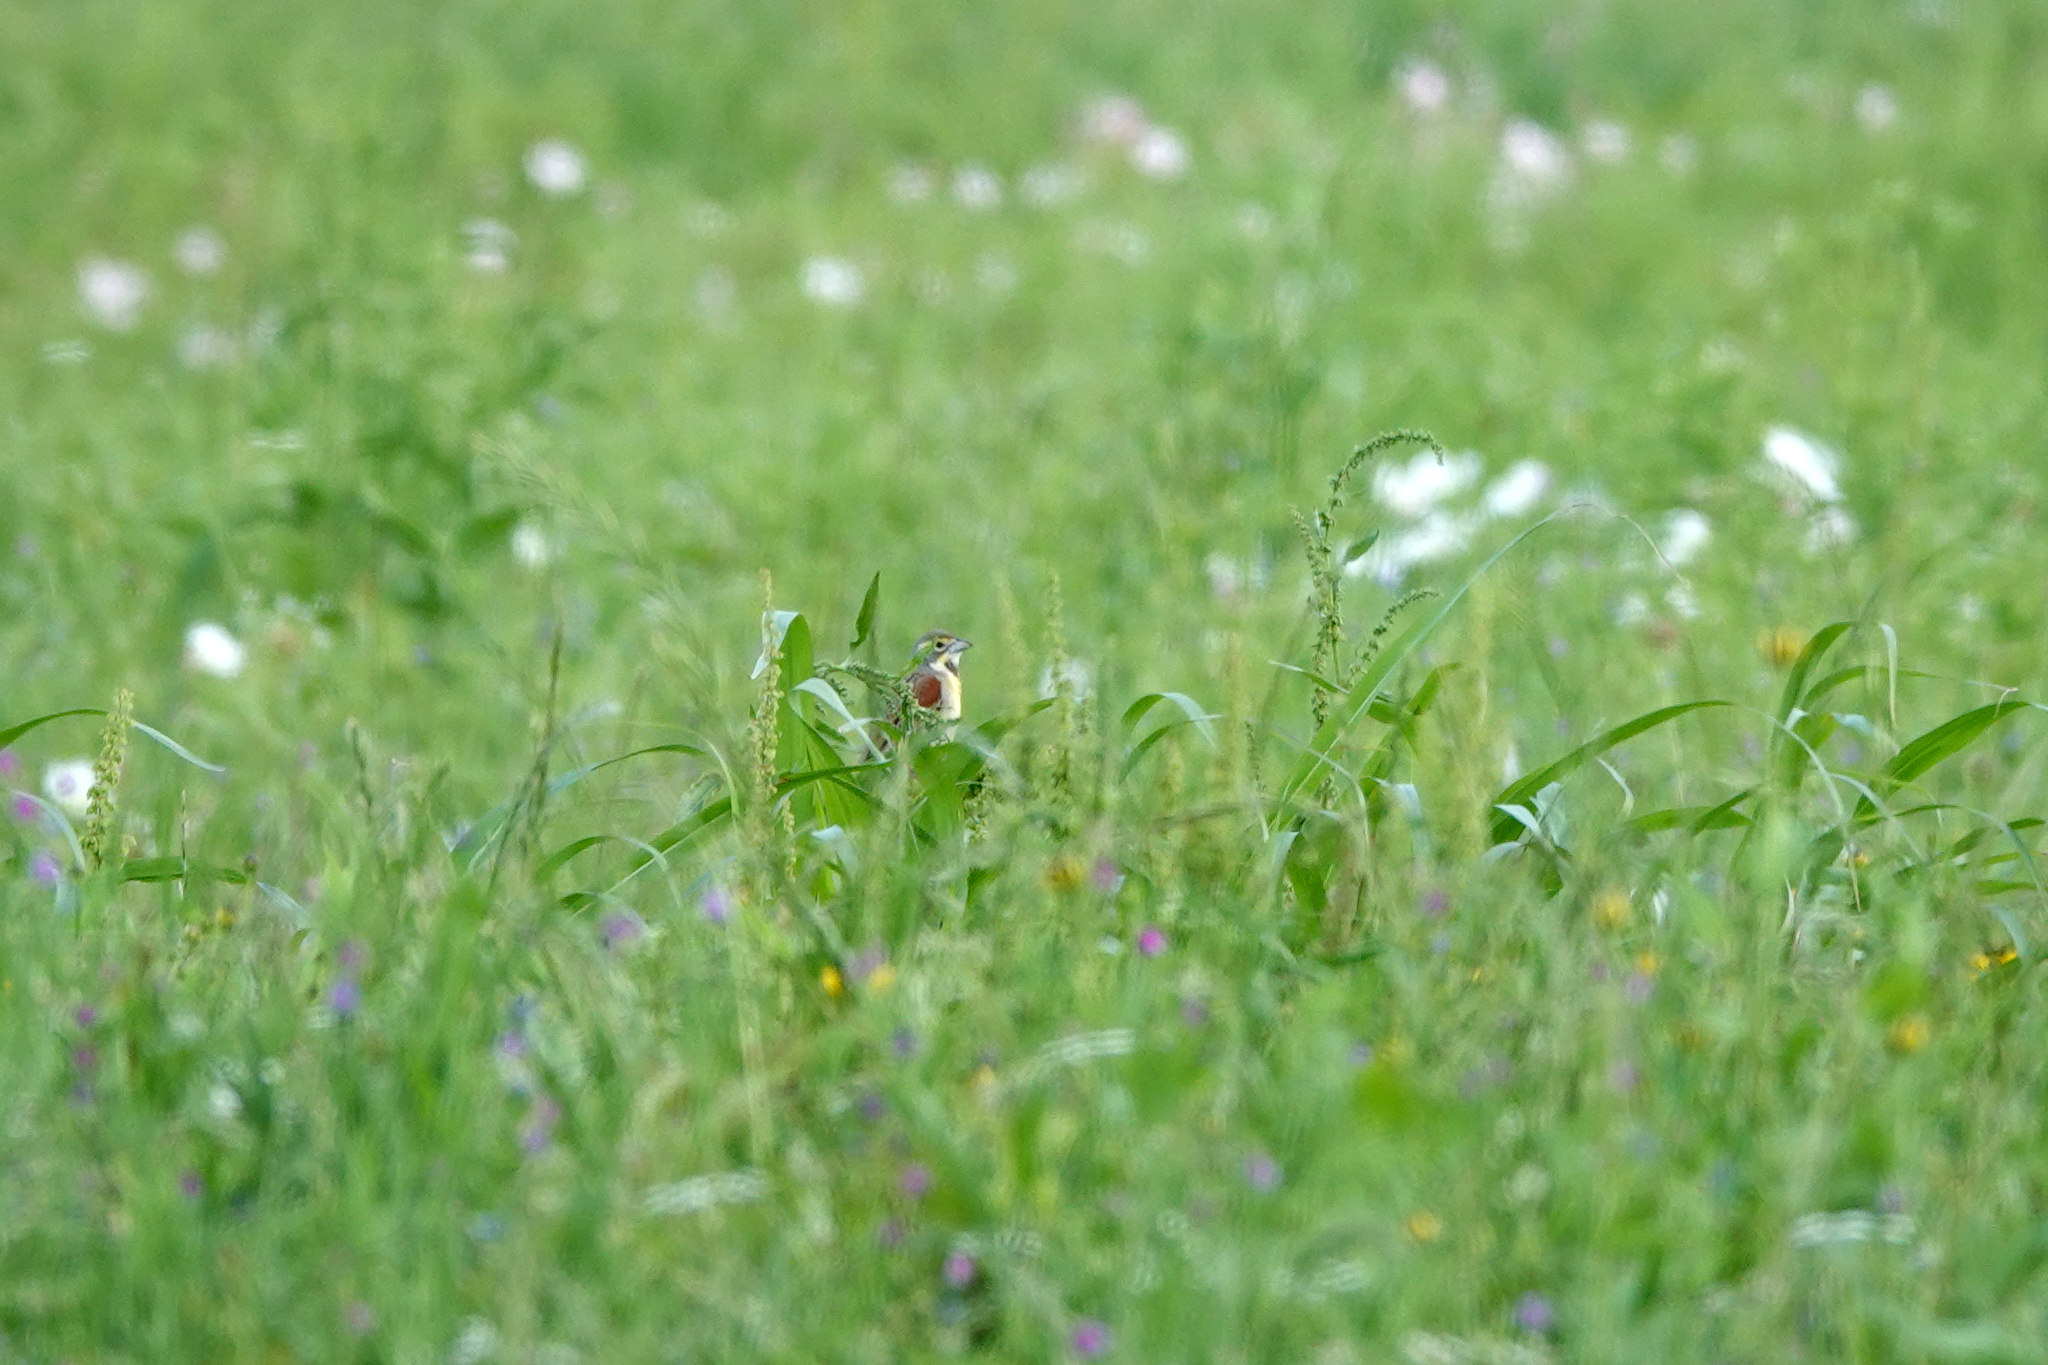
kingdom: Animalia
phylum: Chordata
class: Aves
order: Passeriformes
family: Cardinalidae
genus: Spiza
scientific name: Spiza americana
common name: Dickcissel
